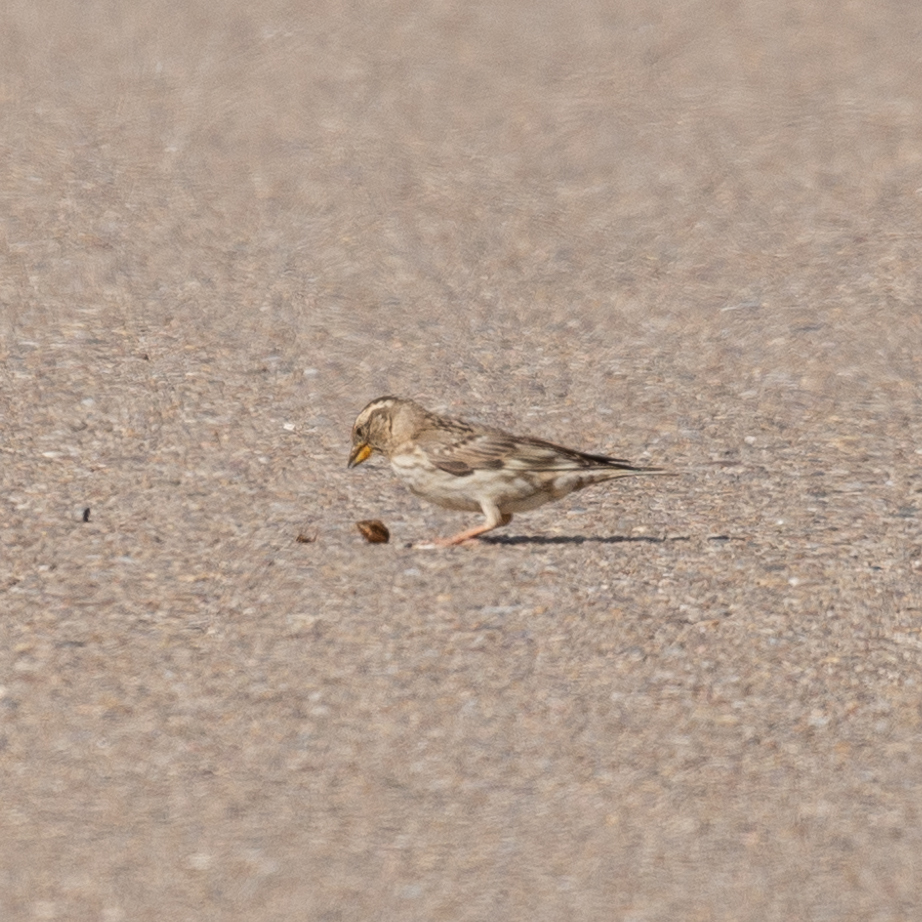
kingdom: Animalia
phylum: Chordata
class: Aves
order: Passeriformes
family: Passeridae
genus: Petronia
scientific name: Petronia petronia
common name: Rock sparrow
